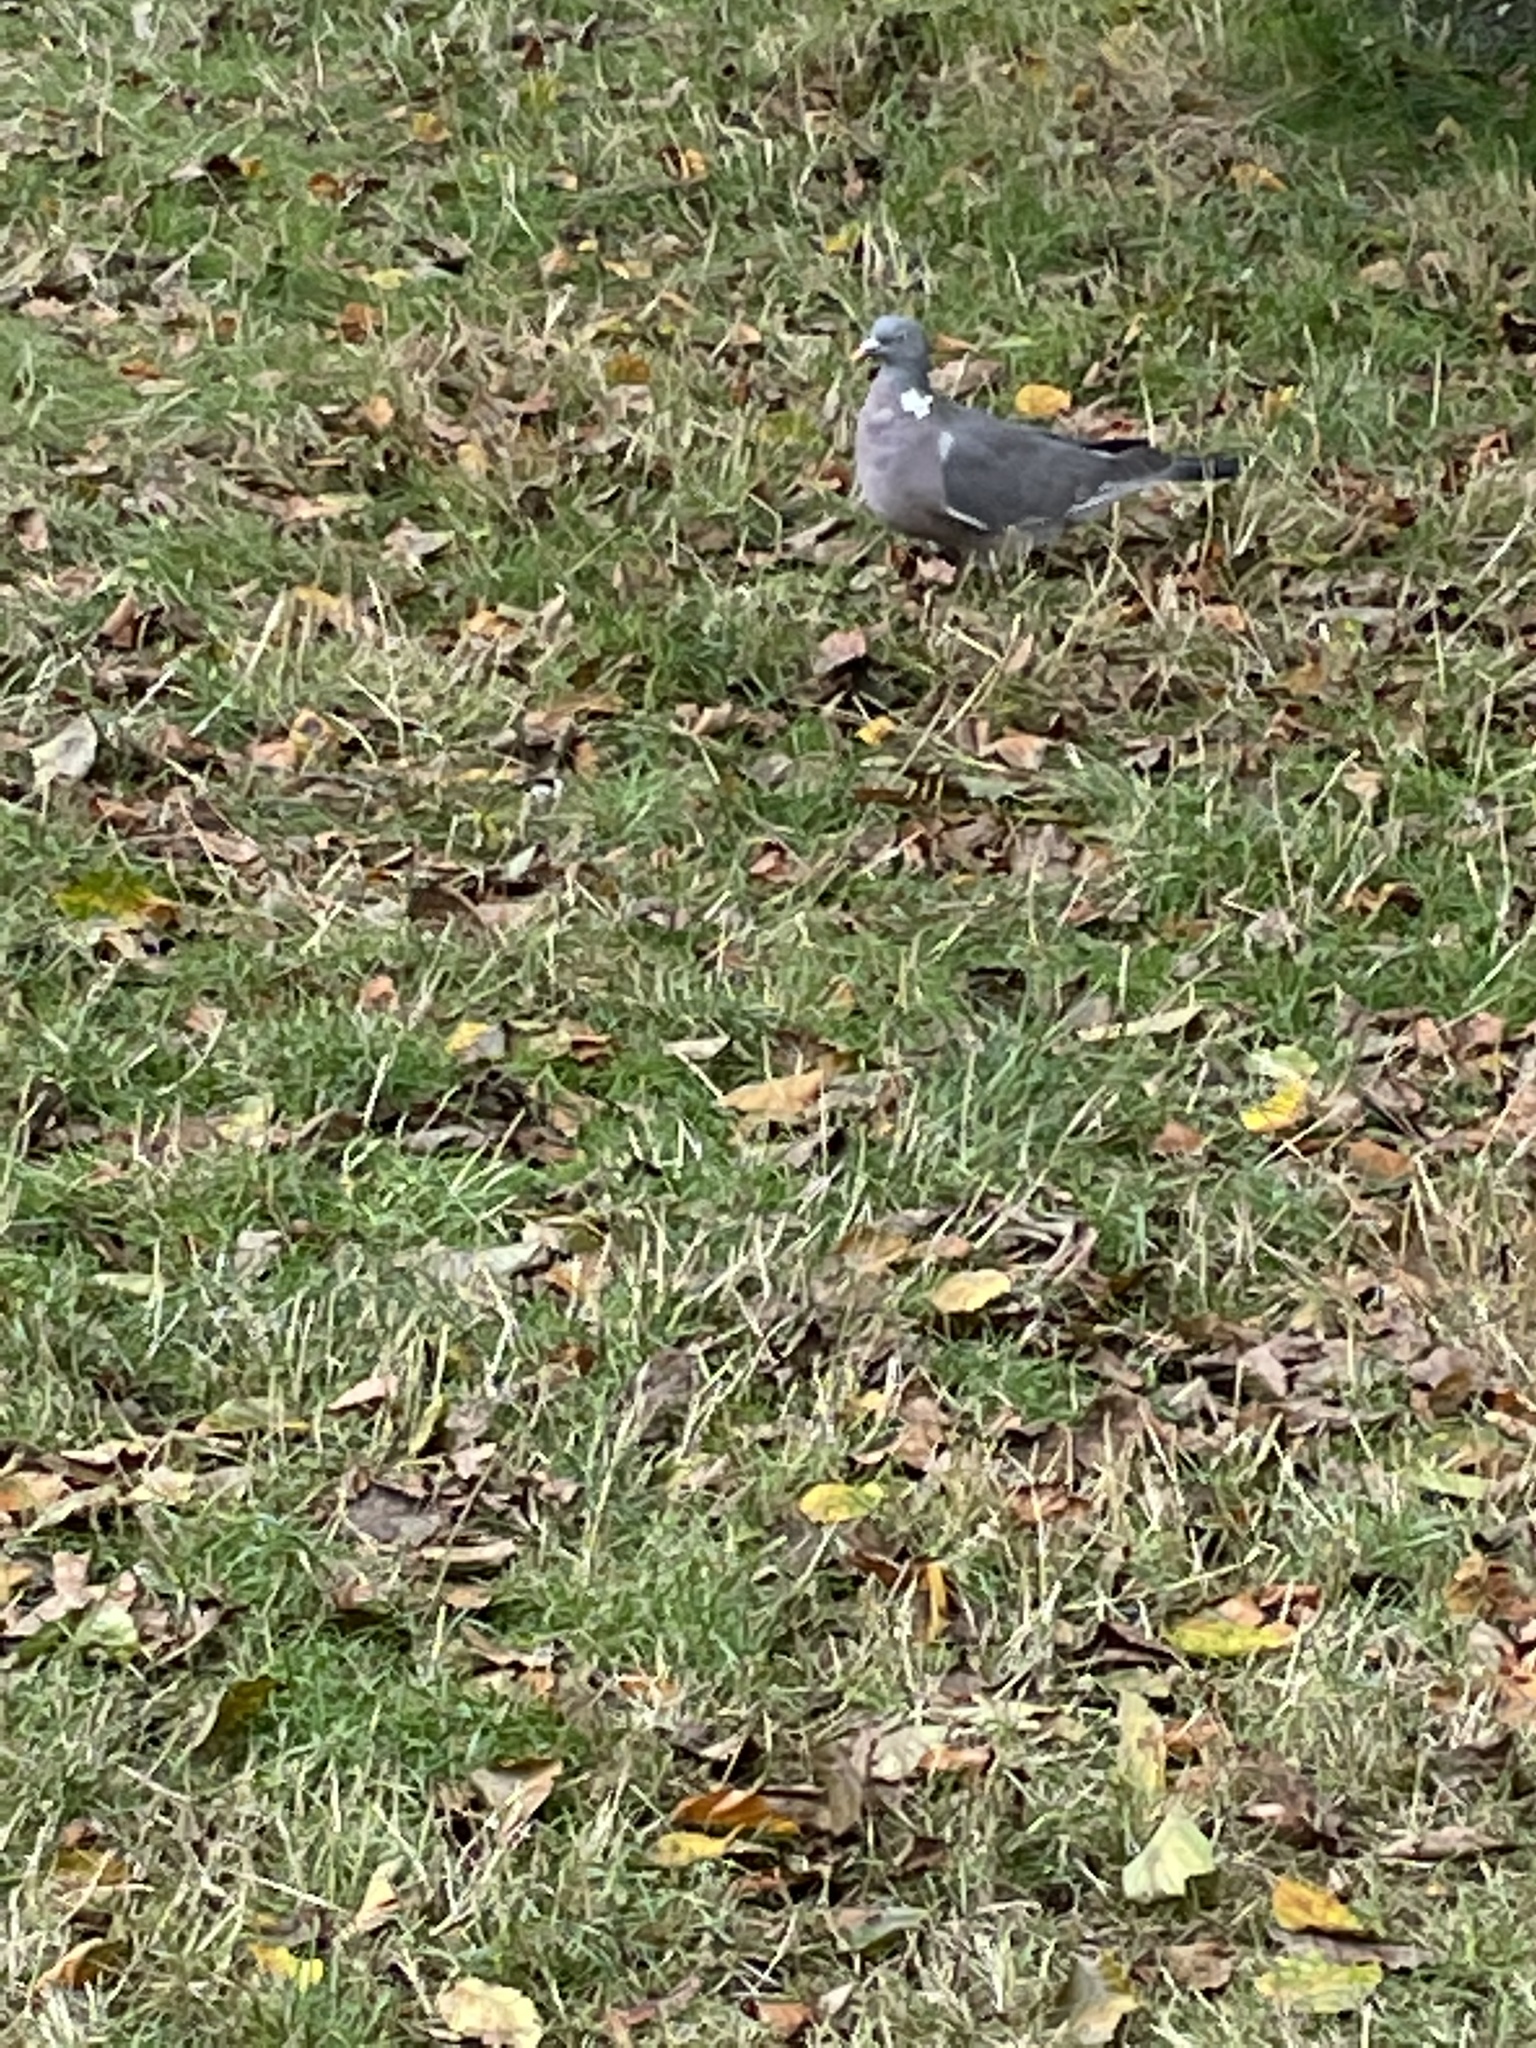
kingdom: Animalia
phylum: Chordata
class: Aves
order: Columbiformes
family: Columbidae
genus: Columba
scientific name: Columba palumbus
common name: Common wood pigeon
